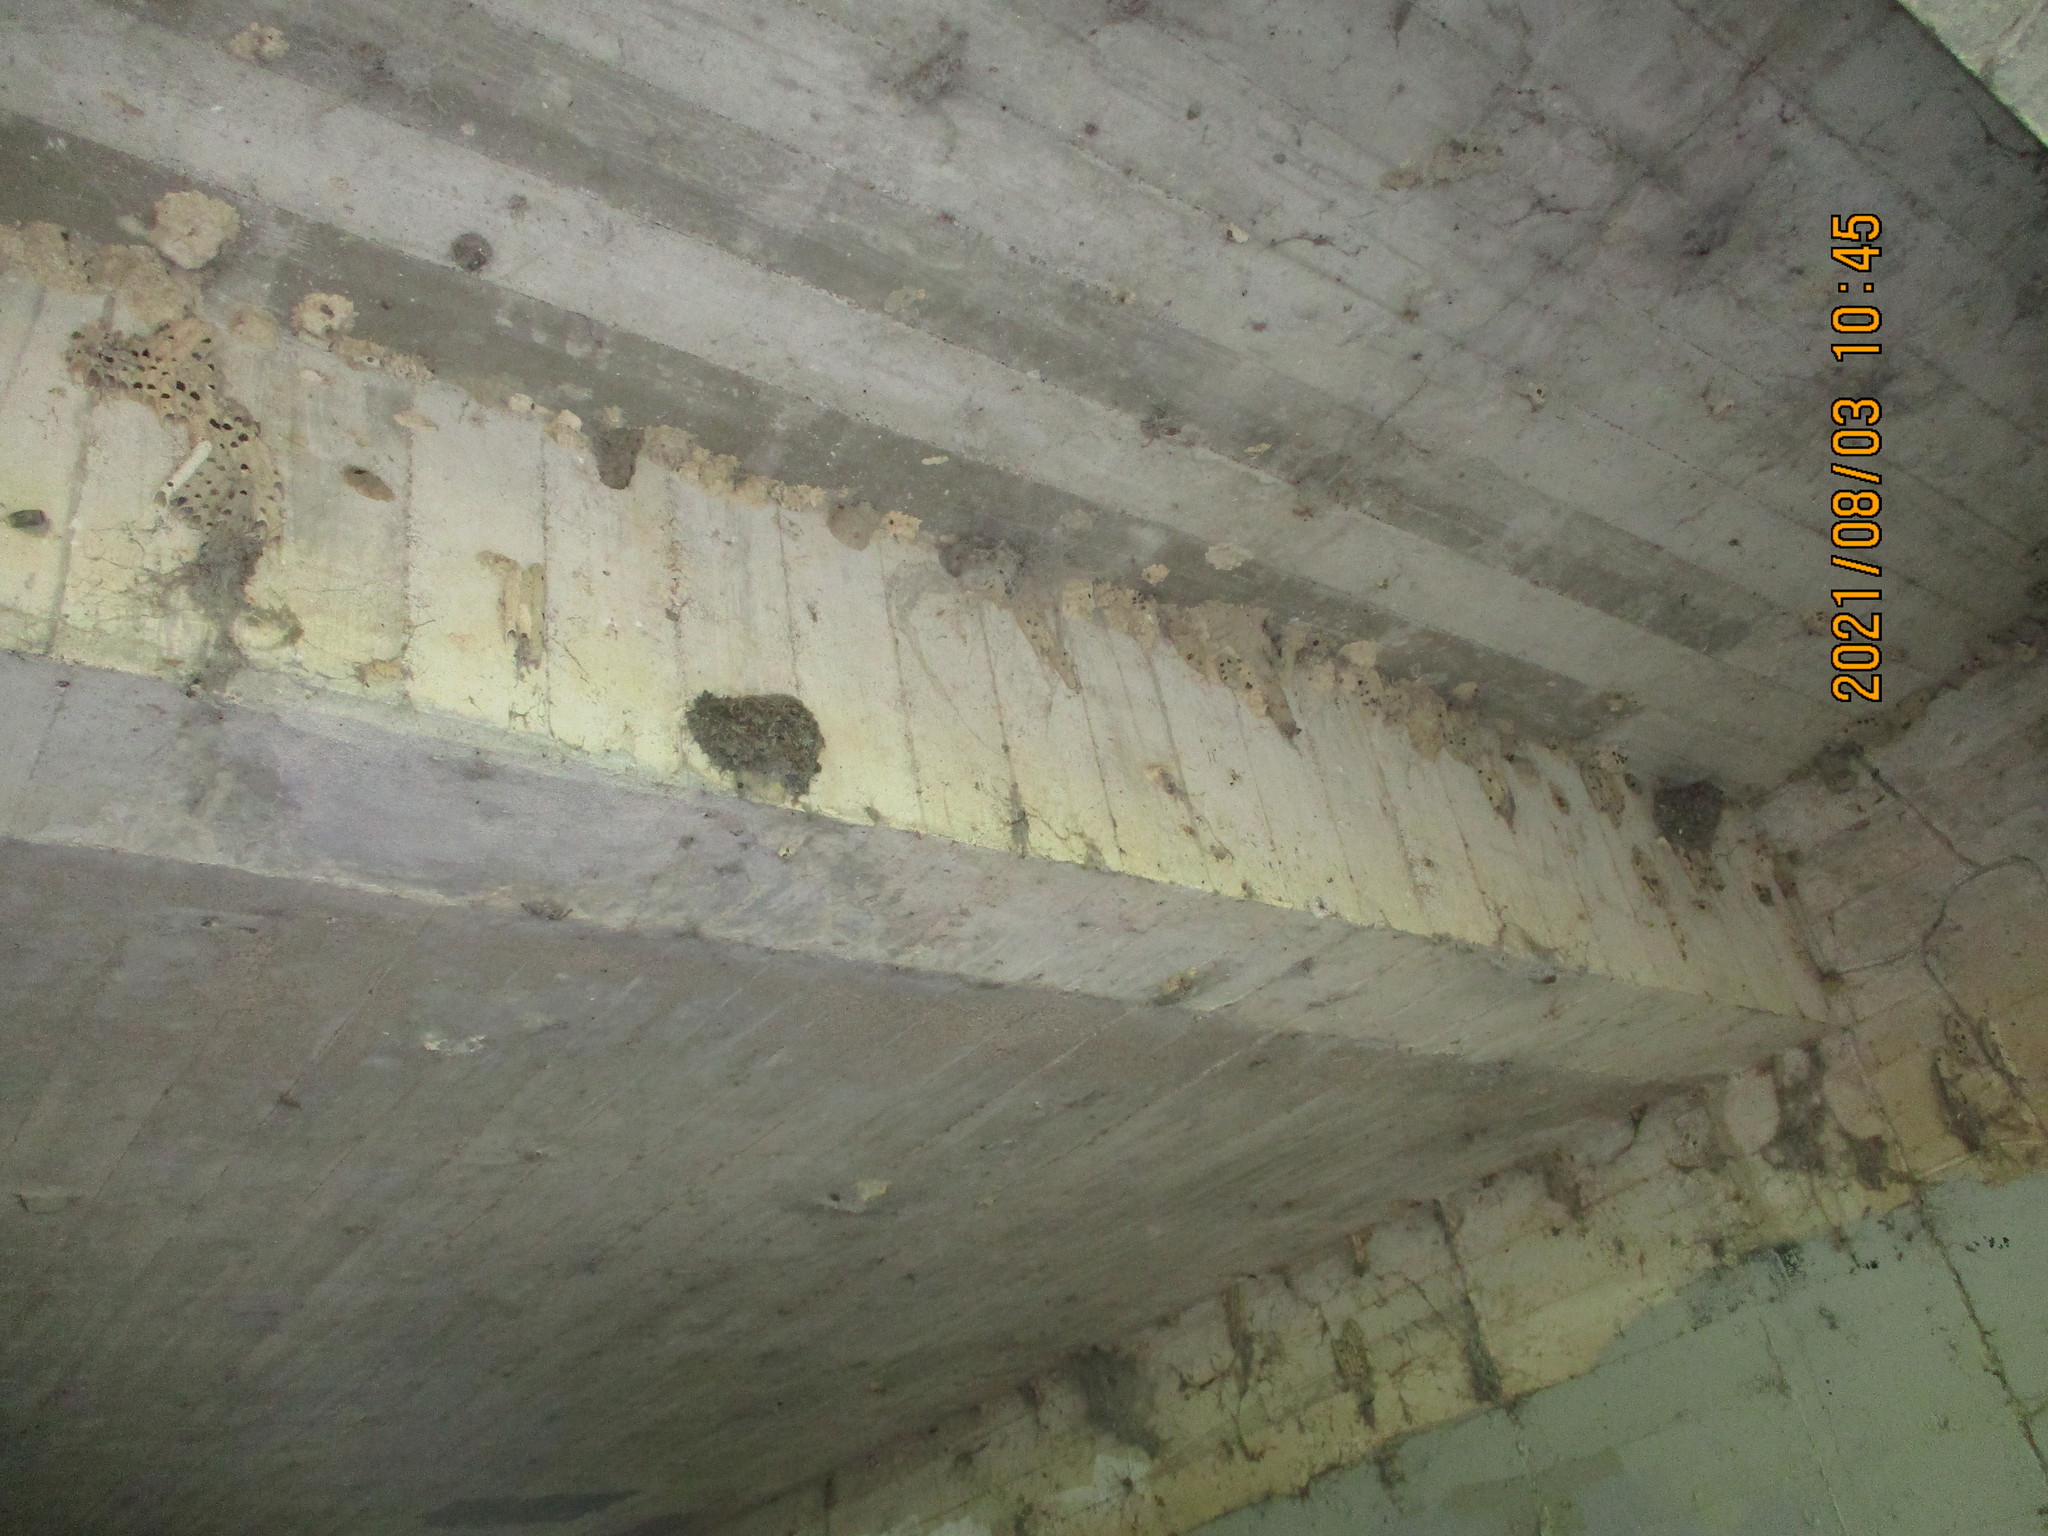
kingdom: Animalia
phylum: Chordata
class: Aves
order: Passeriformes
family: Hirundinidae
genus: Hirundo
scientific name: Hirundo rustica
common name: Barn swallow
